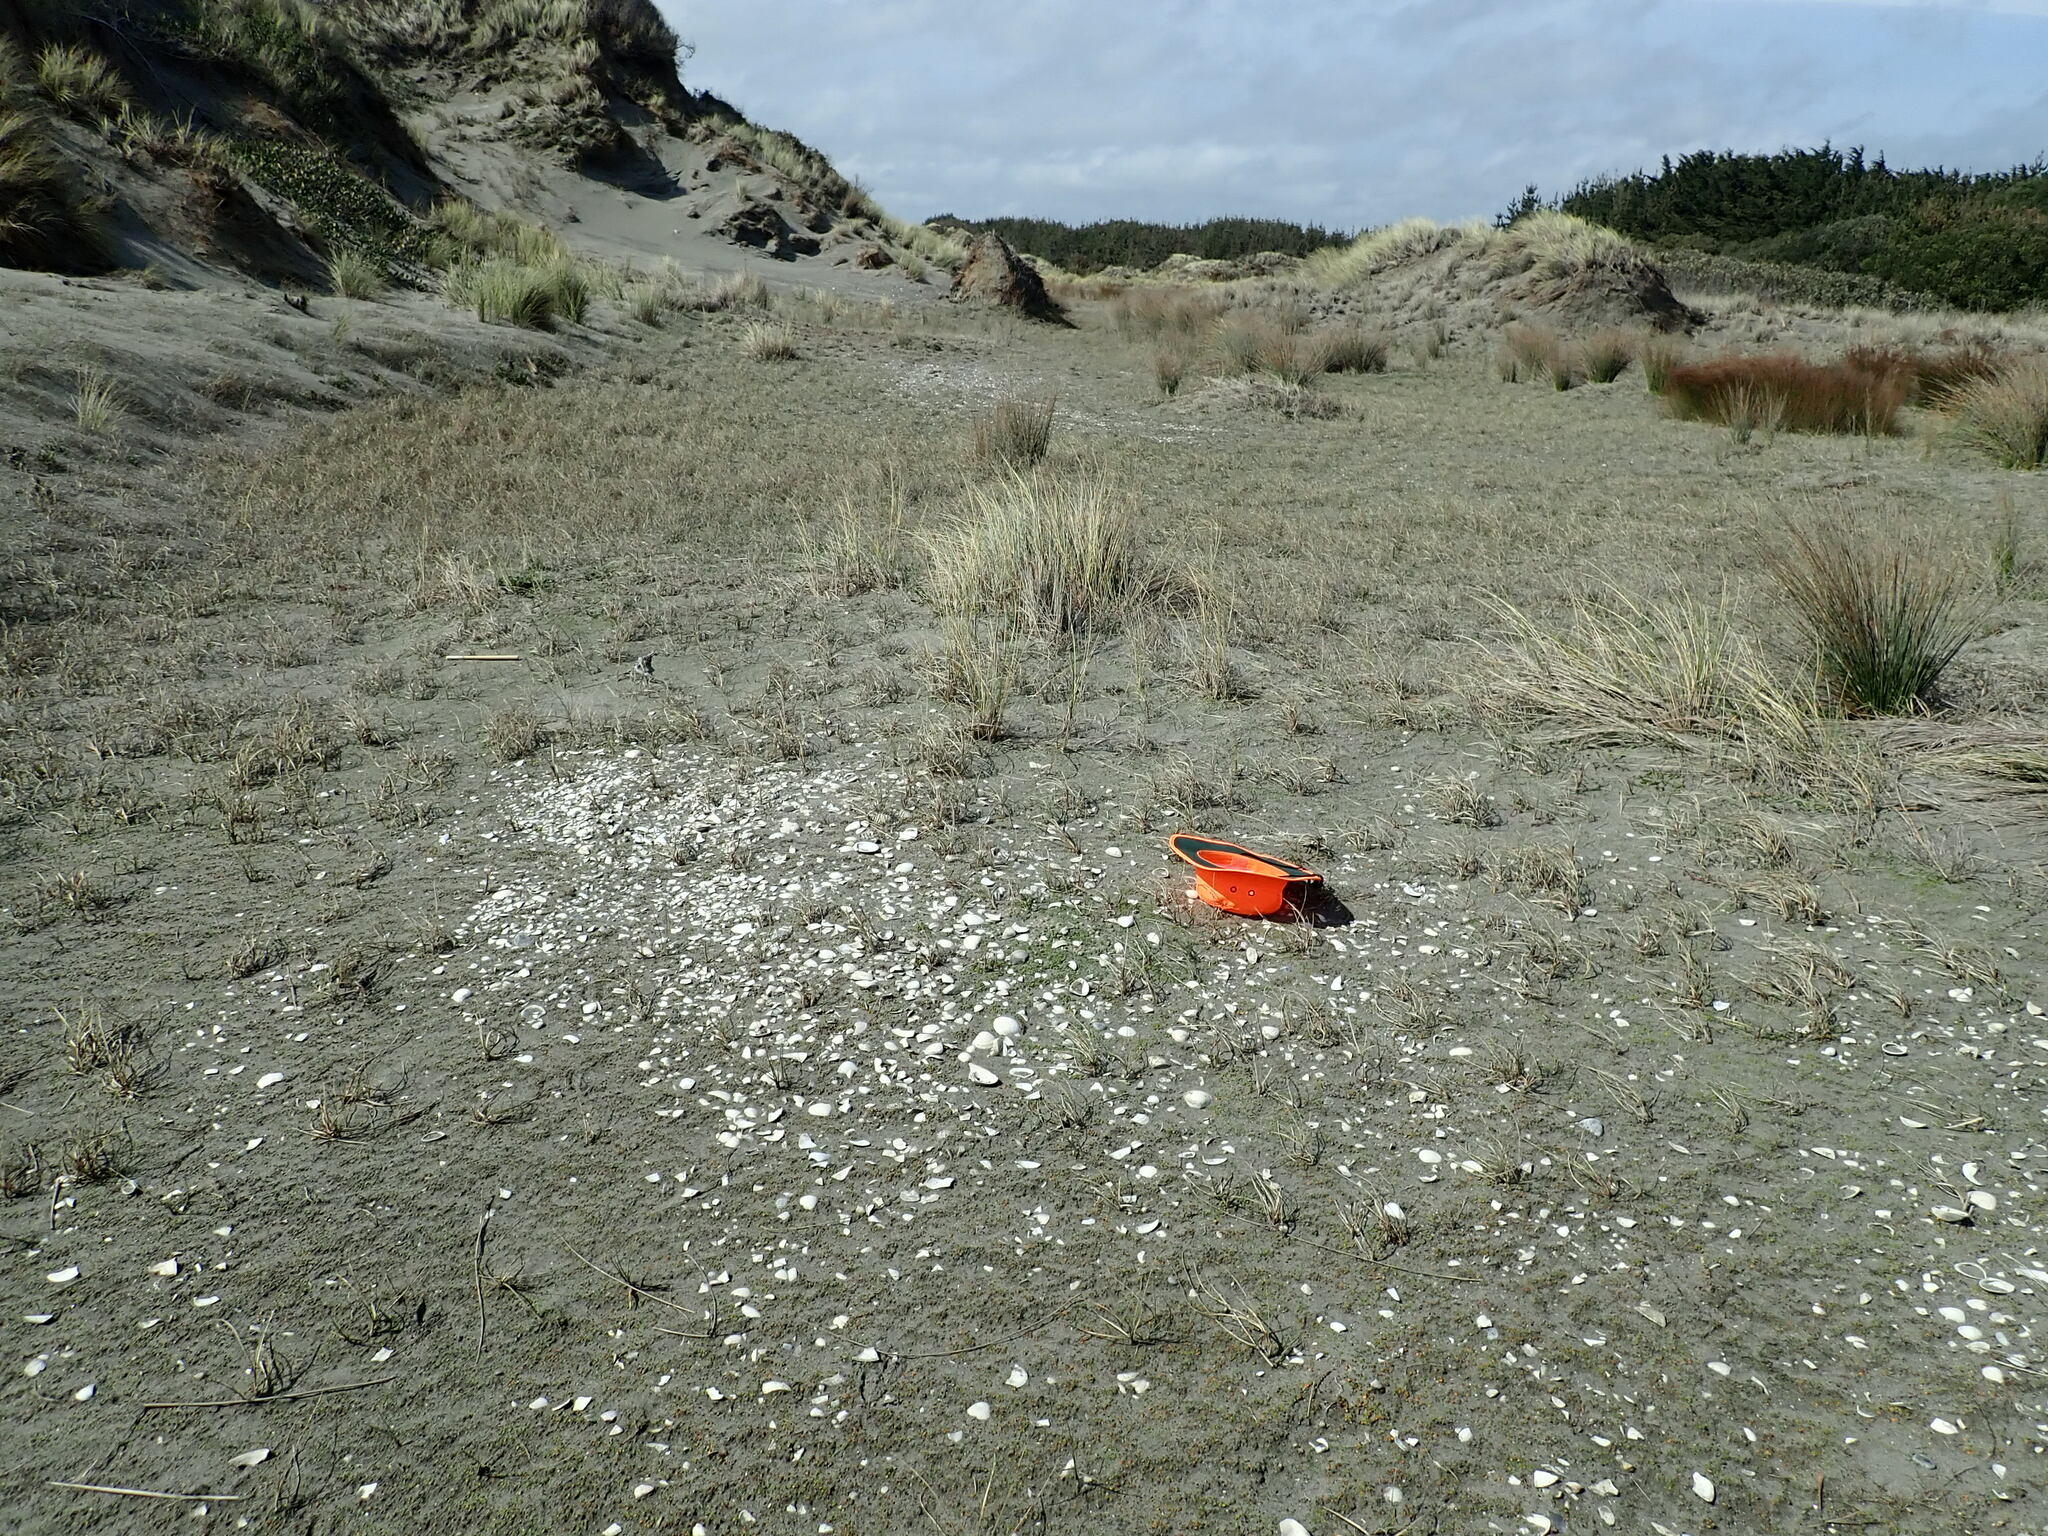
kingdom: Plantae
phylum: Tracheophyta
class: Magnoliopsida
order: Asterales
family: Goodeniaceae
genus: Goodenia
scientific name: Goodenia heenanii
